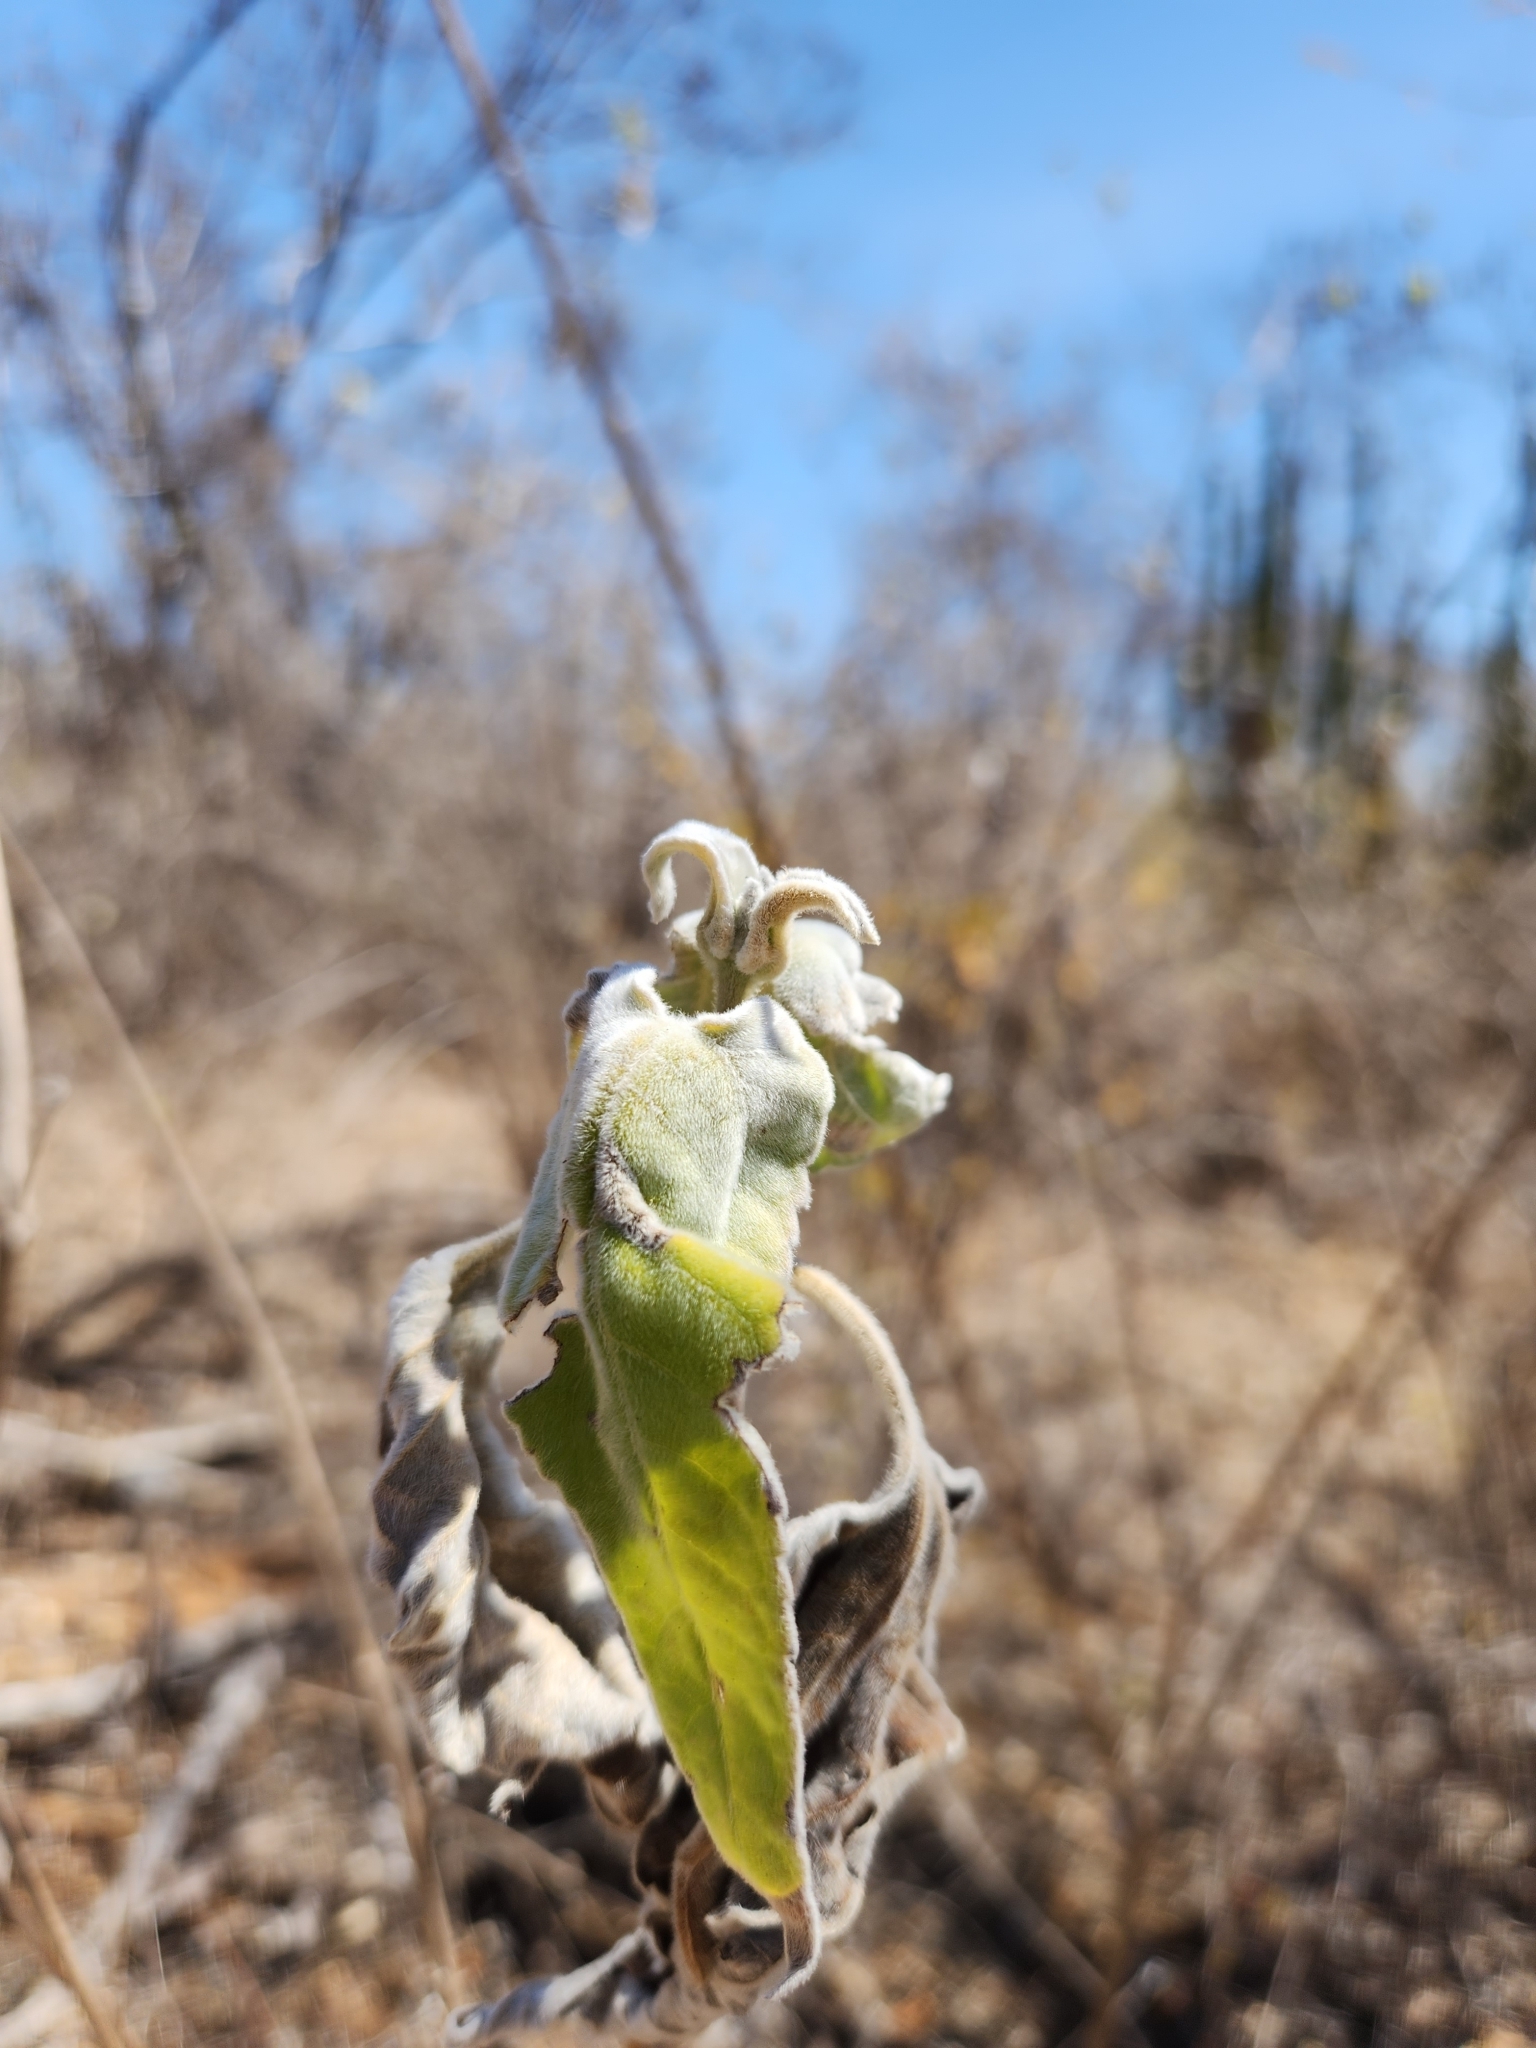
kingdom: Plantae
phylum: Tracheophyta
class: Magnoliopsida
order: Asterales
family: Asteraceae
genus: Bahiopsis
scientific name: Bahiopsis tomentosa
